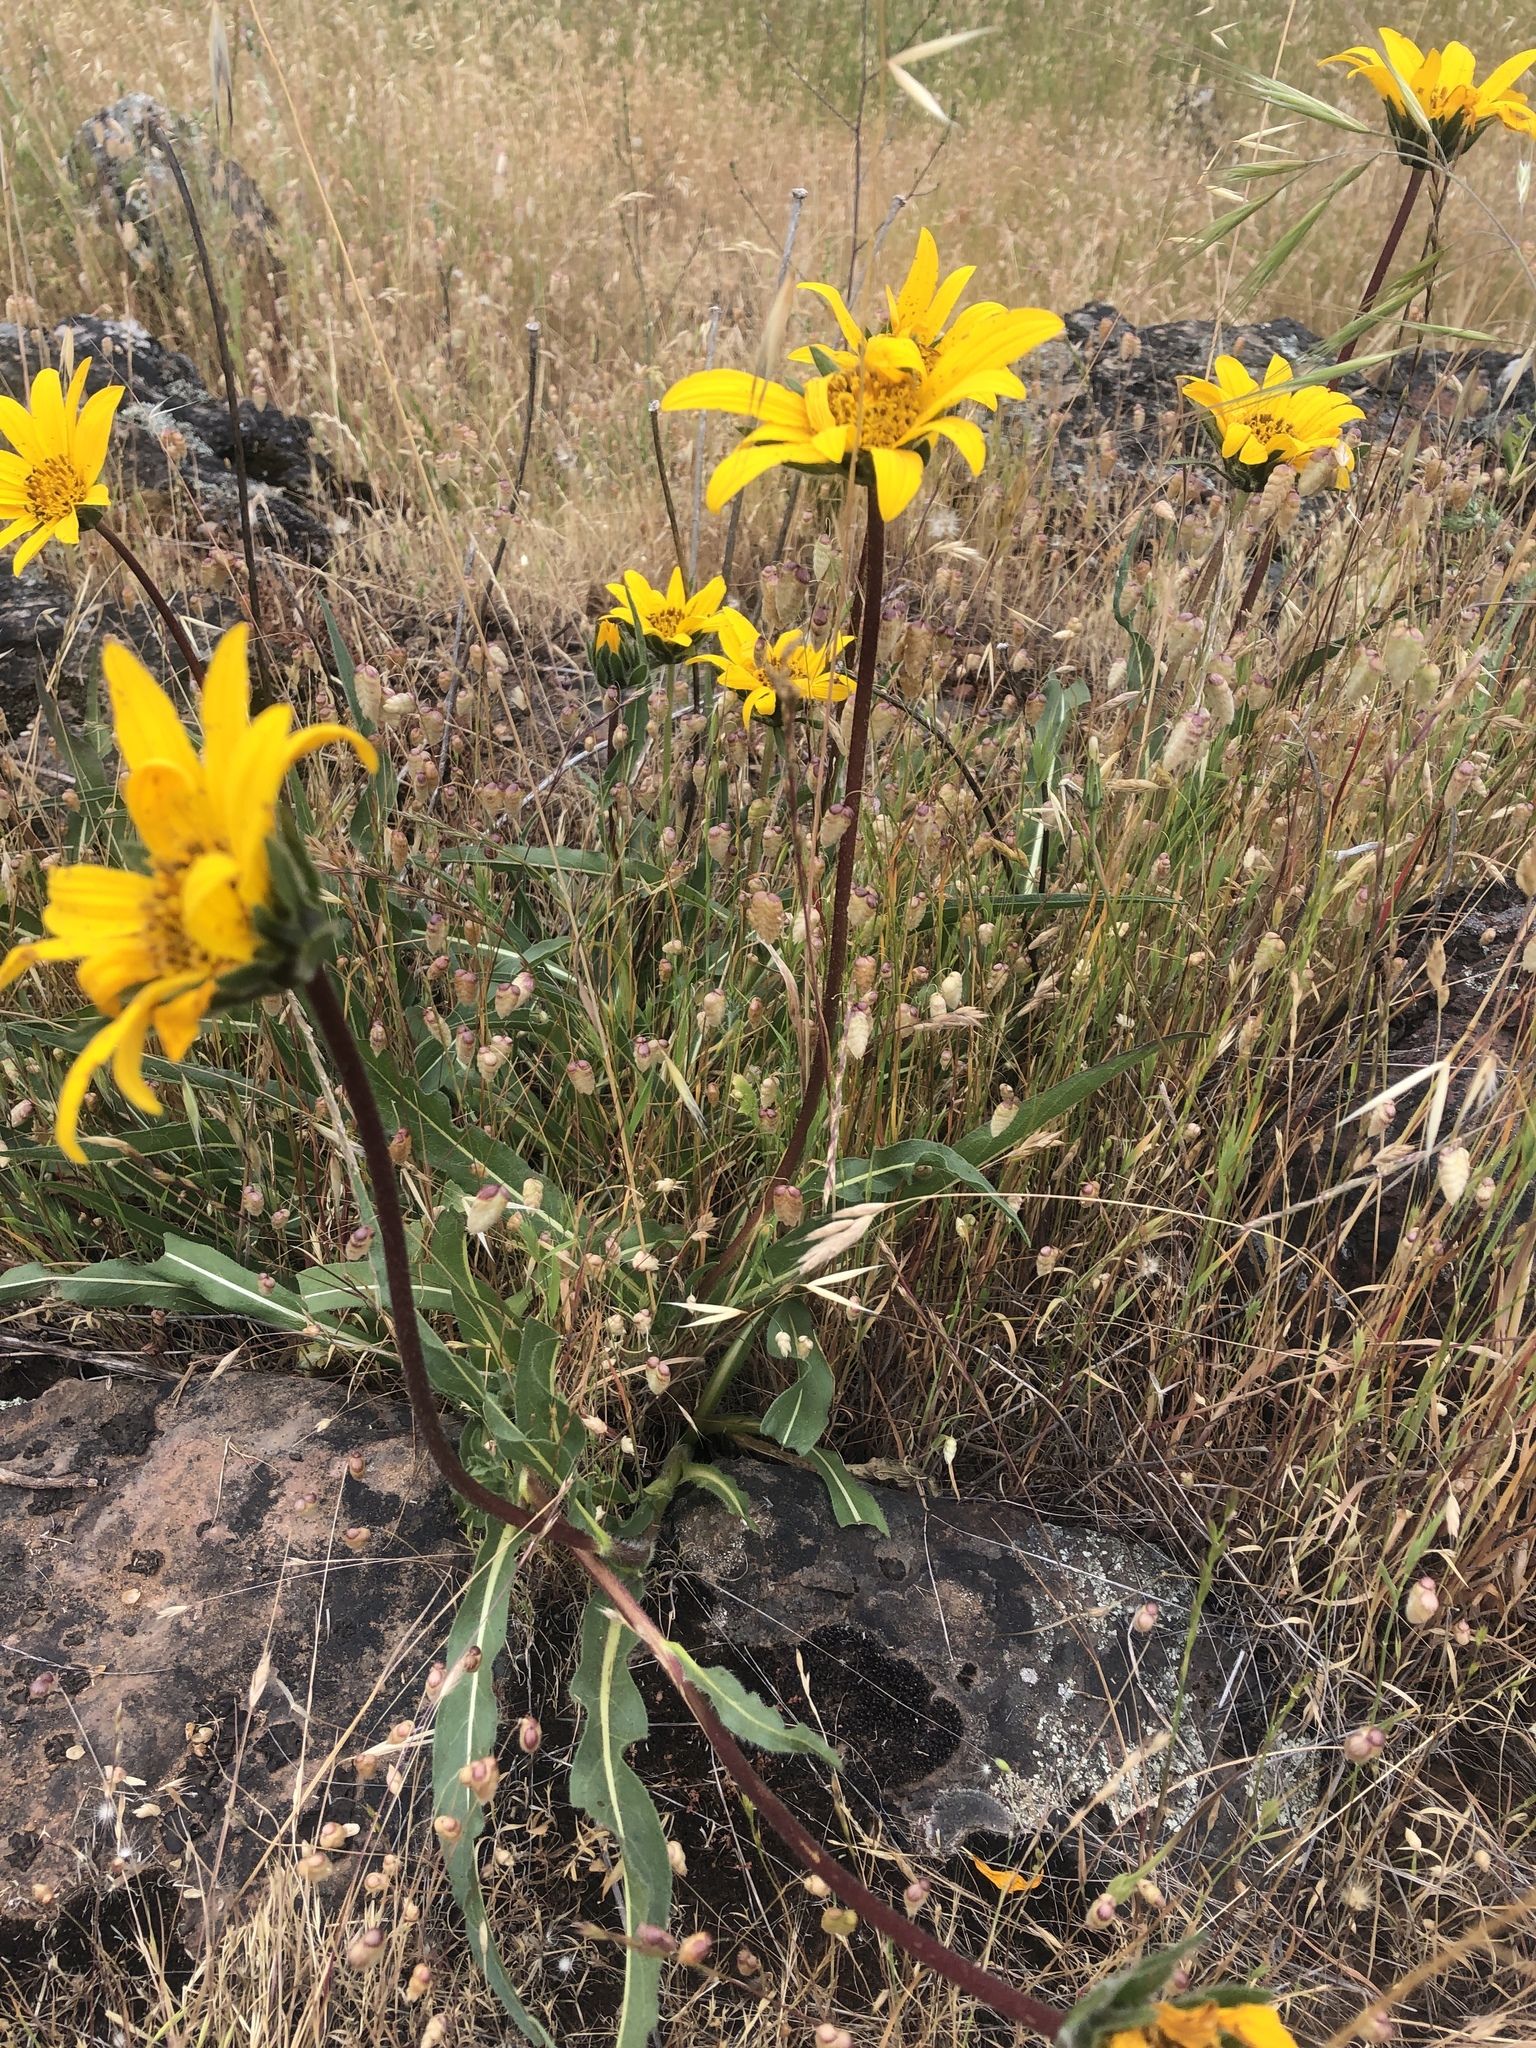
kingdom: Plantae
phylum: Tracheophyta
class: Magnoliopsida
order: Asterales
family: Asteraceae
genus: Wyethia
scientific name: Wyethia angustifolia
